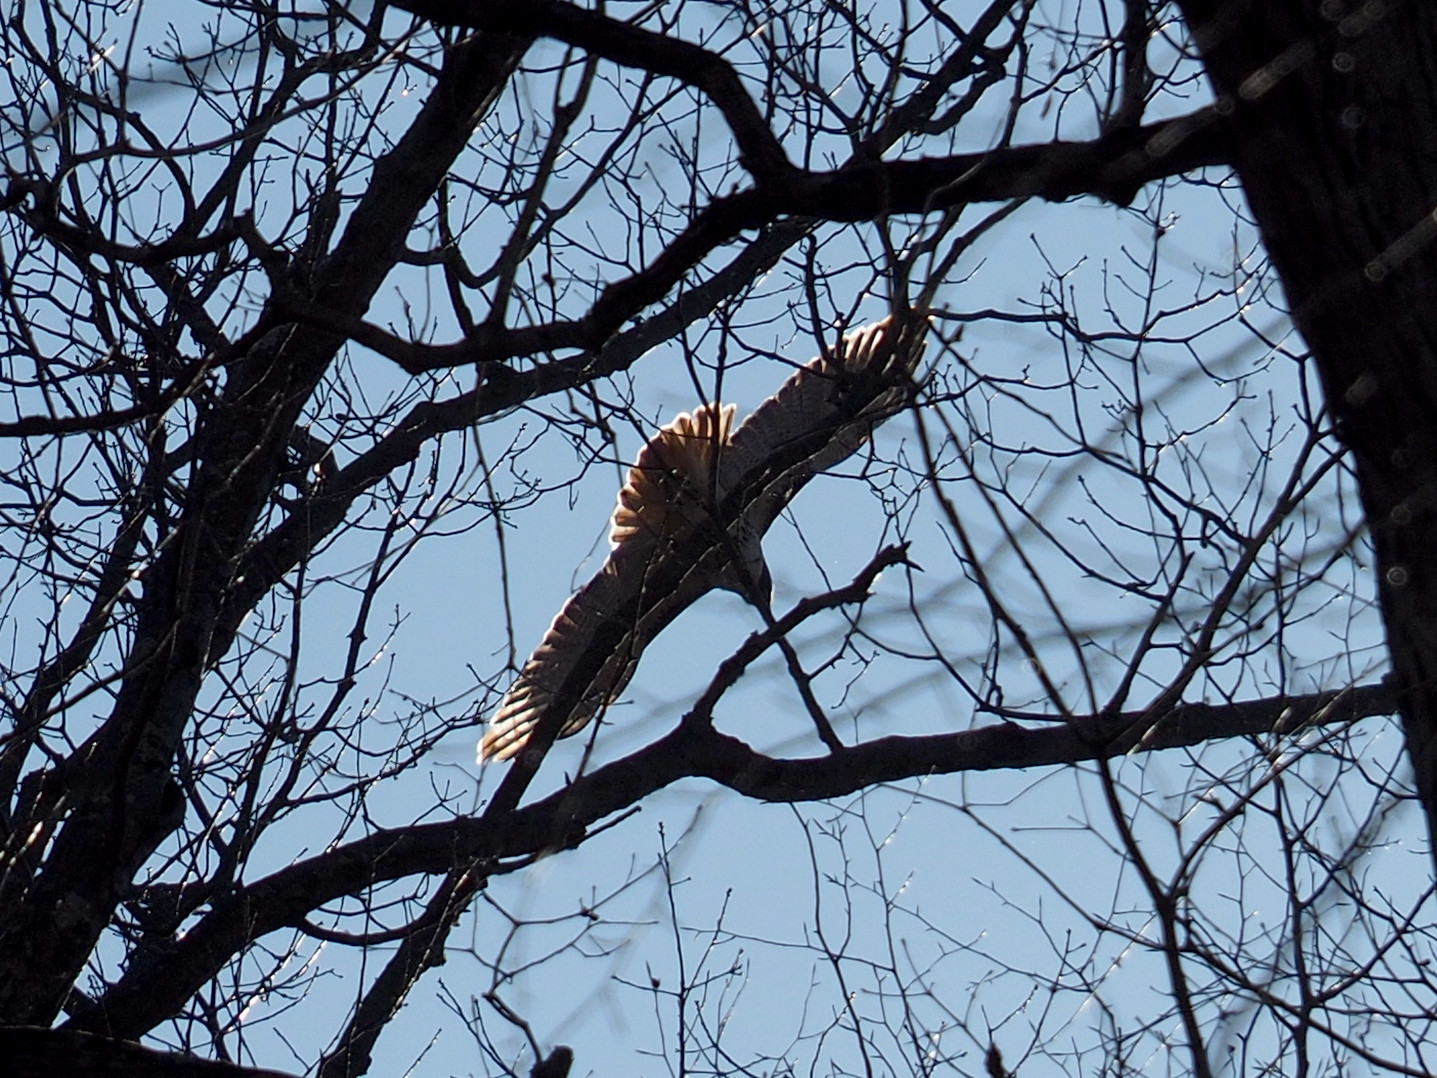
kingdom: Animalia
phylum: Chordata
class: Aves
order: Accipitriformes
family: Accipitridae
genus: Buteo
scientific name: Buteo jamaicensis
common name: Red-tailed hawk
